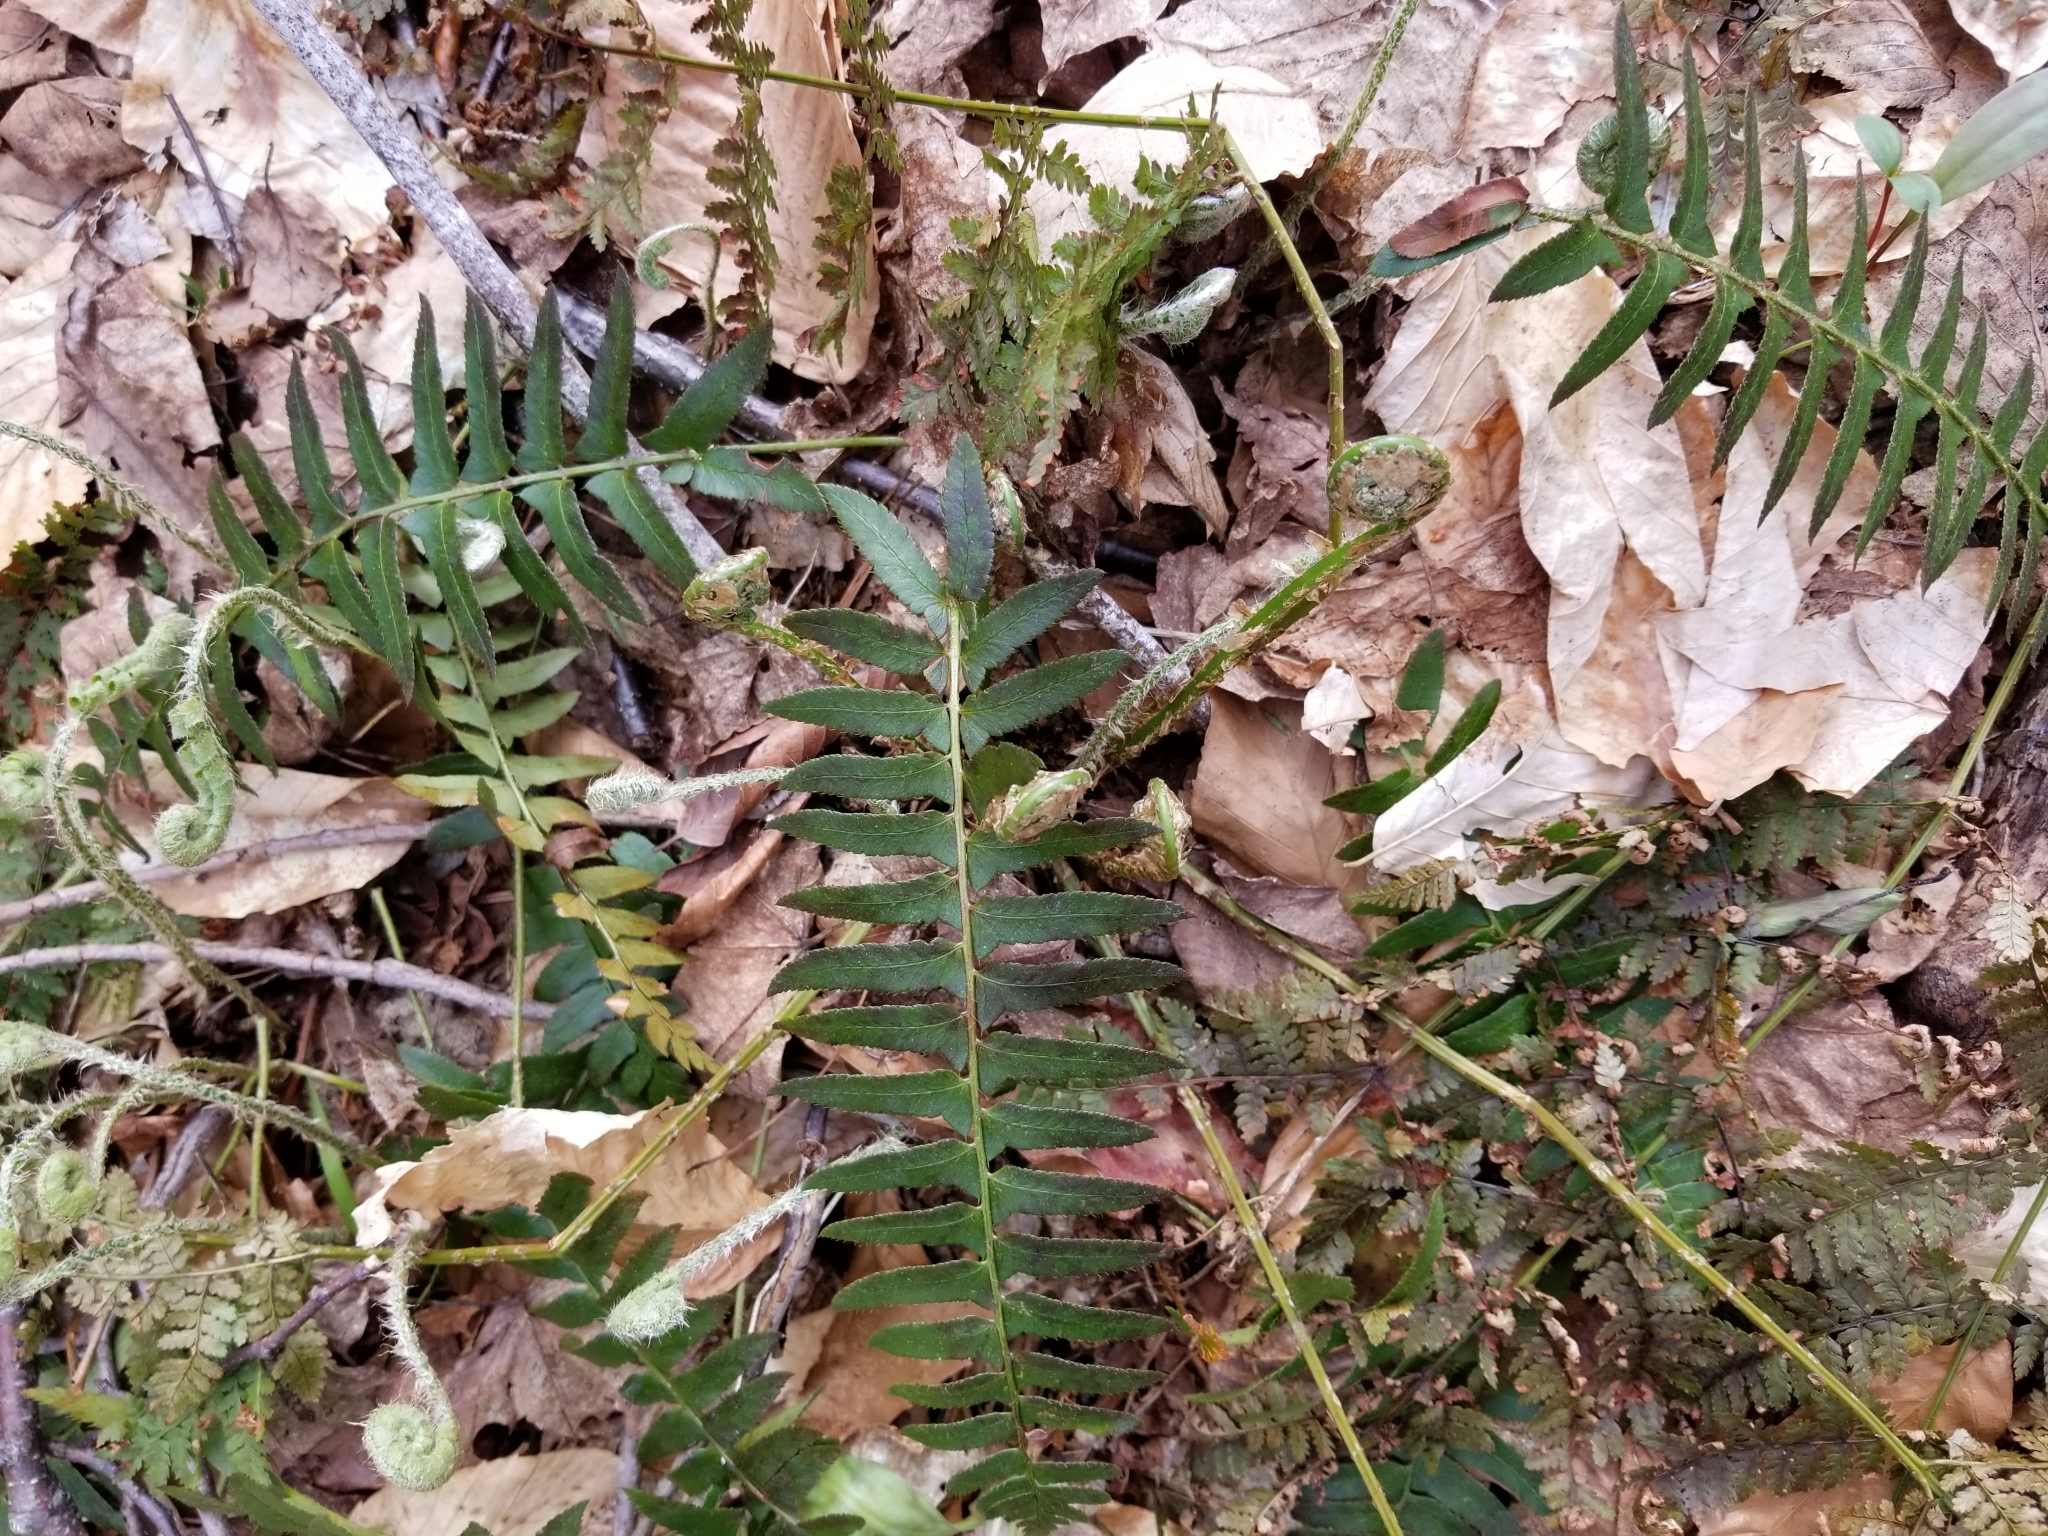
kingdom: Plantae
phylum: Tracheophyta
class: Polypodiopsida
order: Polypodiales
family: Dryopteridaceae
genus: Polystichum
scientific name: Polystichum acrostichoides
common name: Christmas fern
